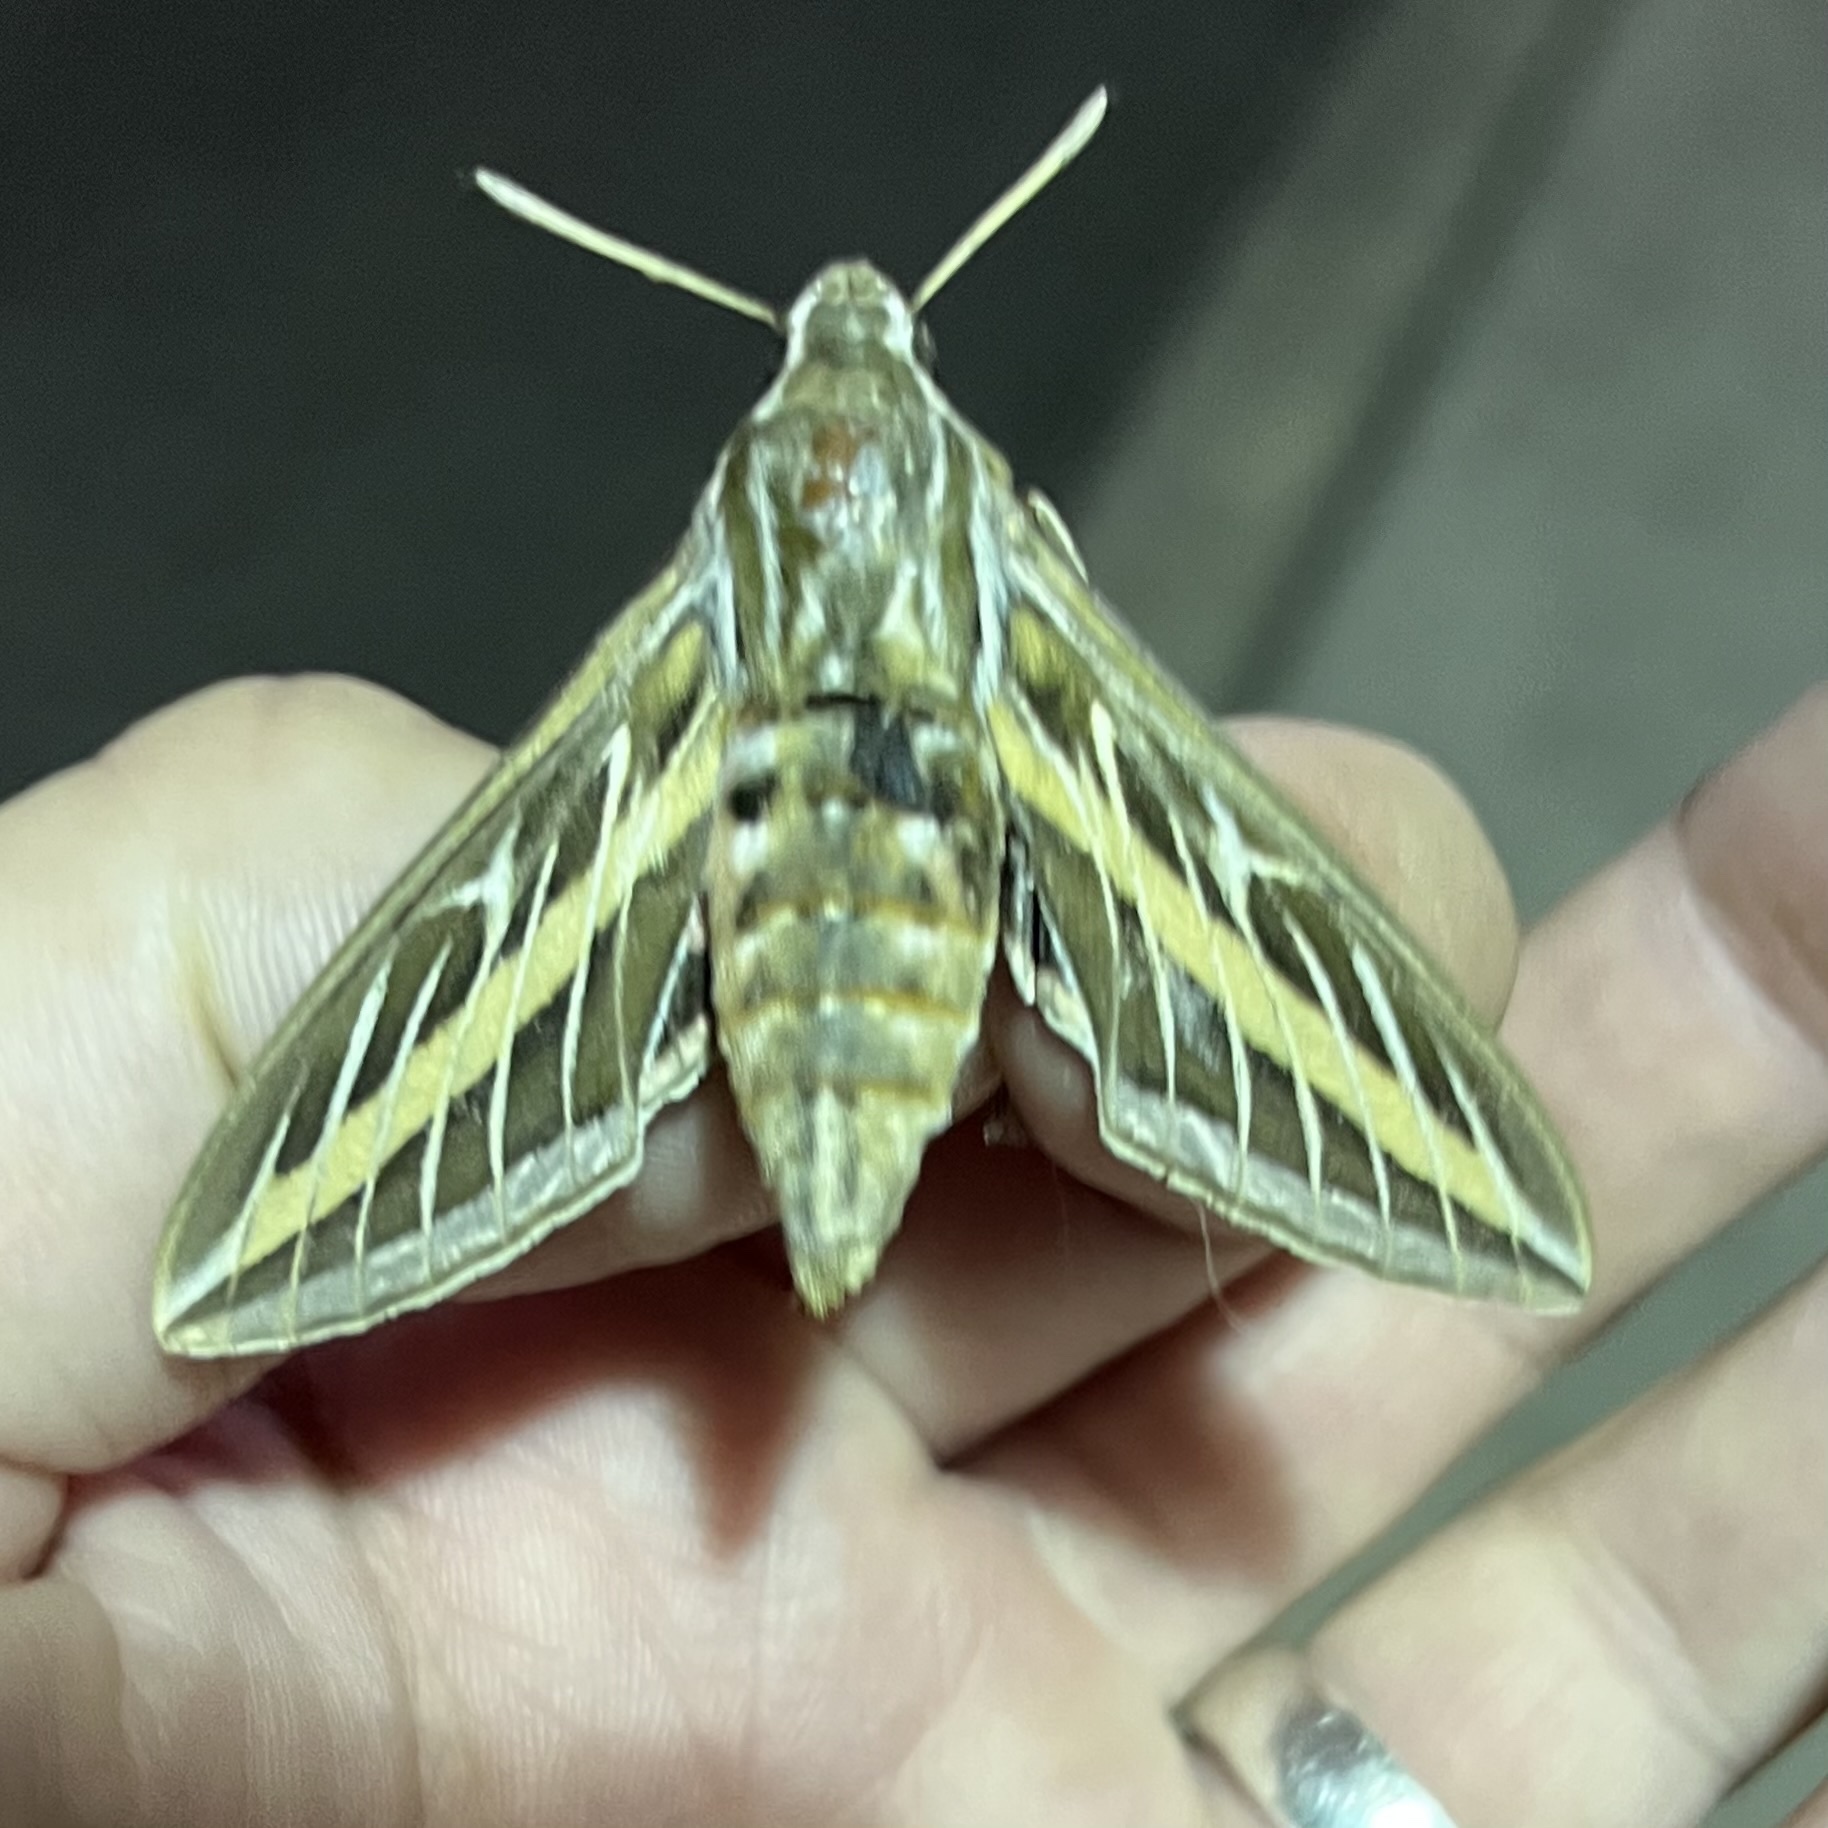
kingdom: Animalia
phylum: Arthropoda
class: Insecta
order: Lepidoptera
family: Sphingidae
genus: Hyles
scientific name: Hyles lineata
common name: White-lined sphinx
